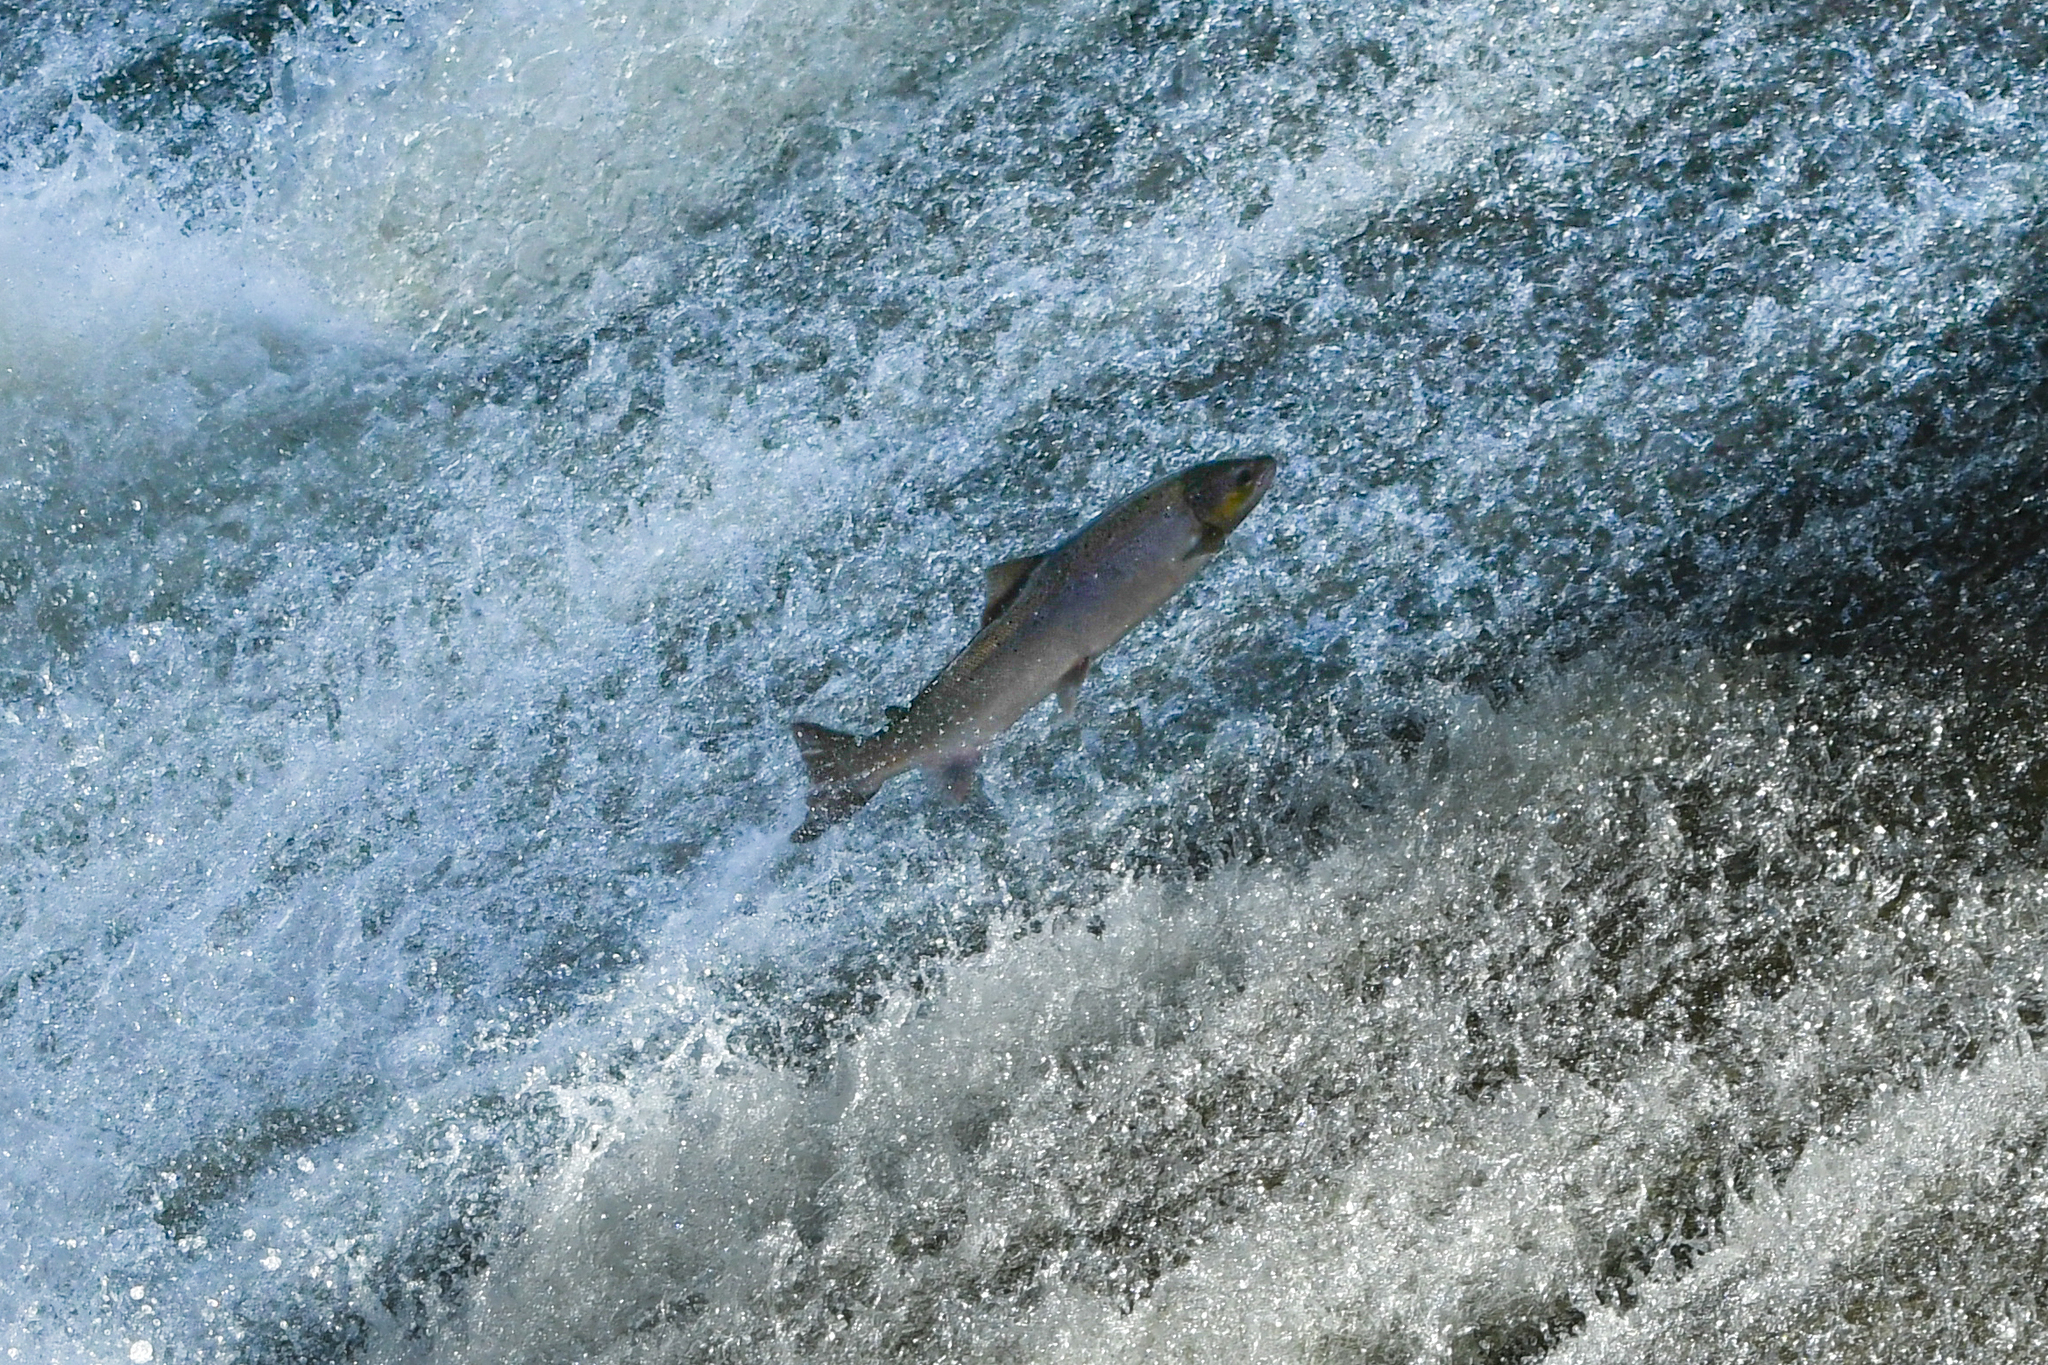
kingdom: Animalia
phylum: Chordata
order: Salmoniformes
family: Salmonidae
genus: Salmo
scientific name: Salmo salar
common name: Atlantic salmon
